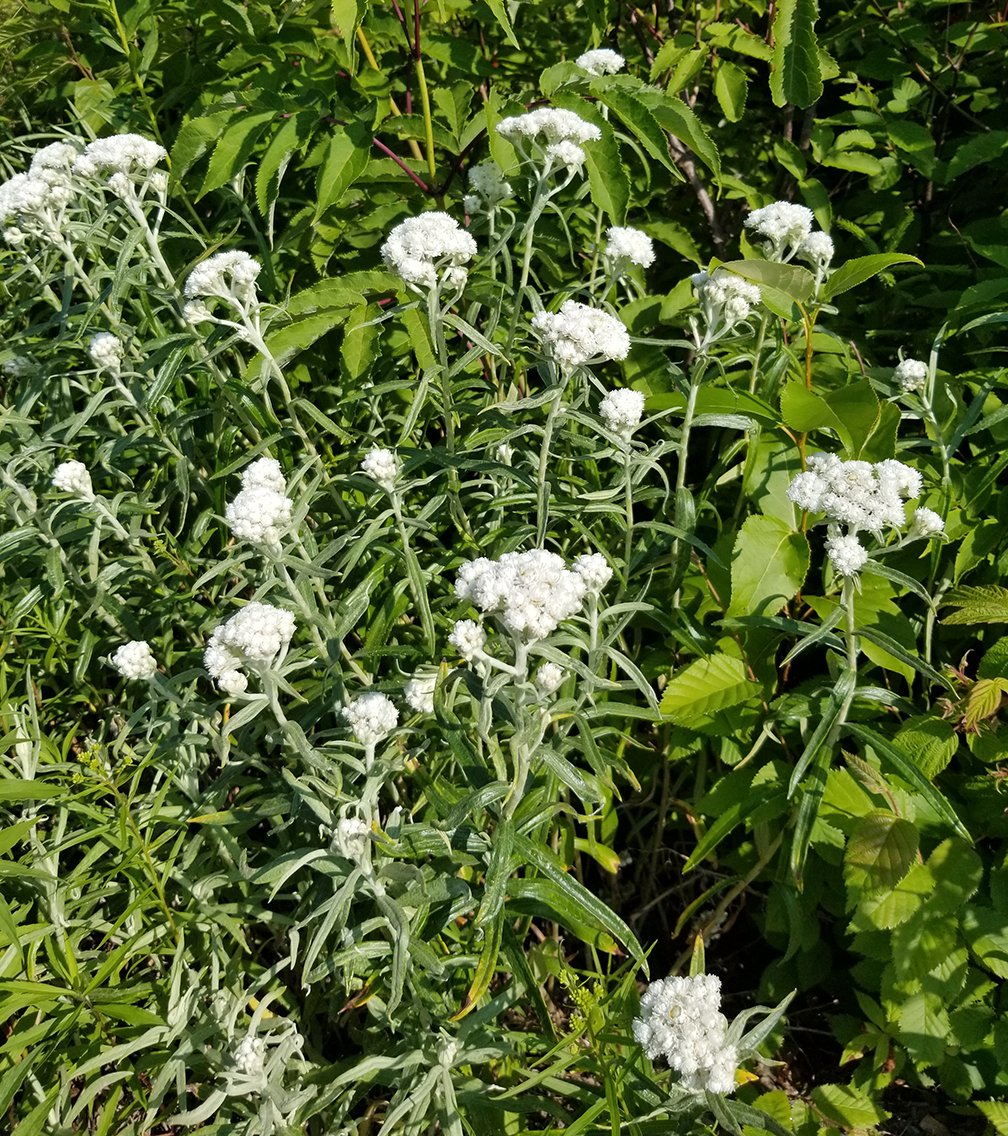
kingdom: Plantae
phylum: Tracheophyta
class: Magnoliopsida
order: Asterales
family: Asteraceae
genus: Anaphalis
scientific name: Anaphalis margaritacea
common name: Pearly everlasting
